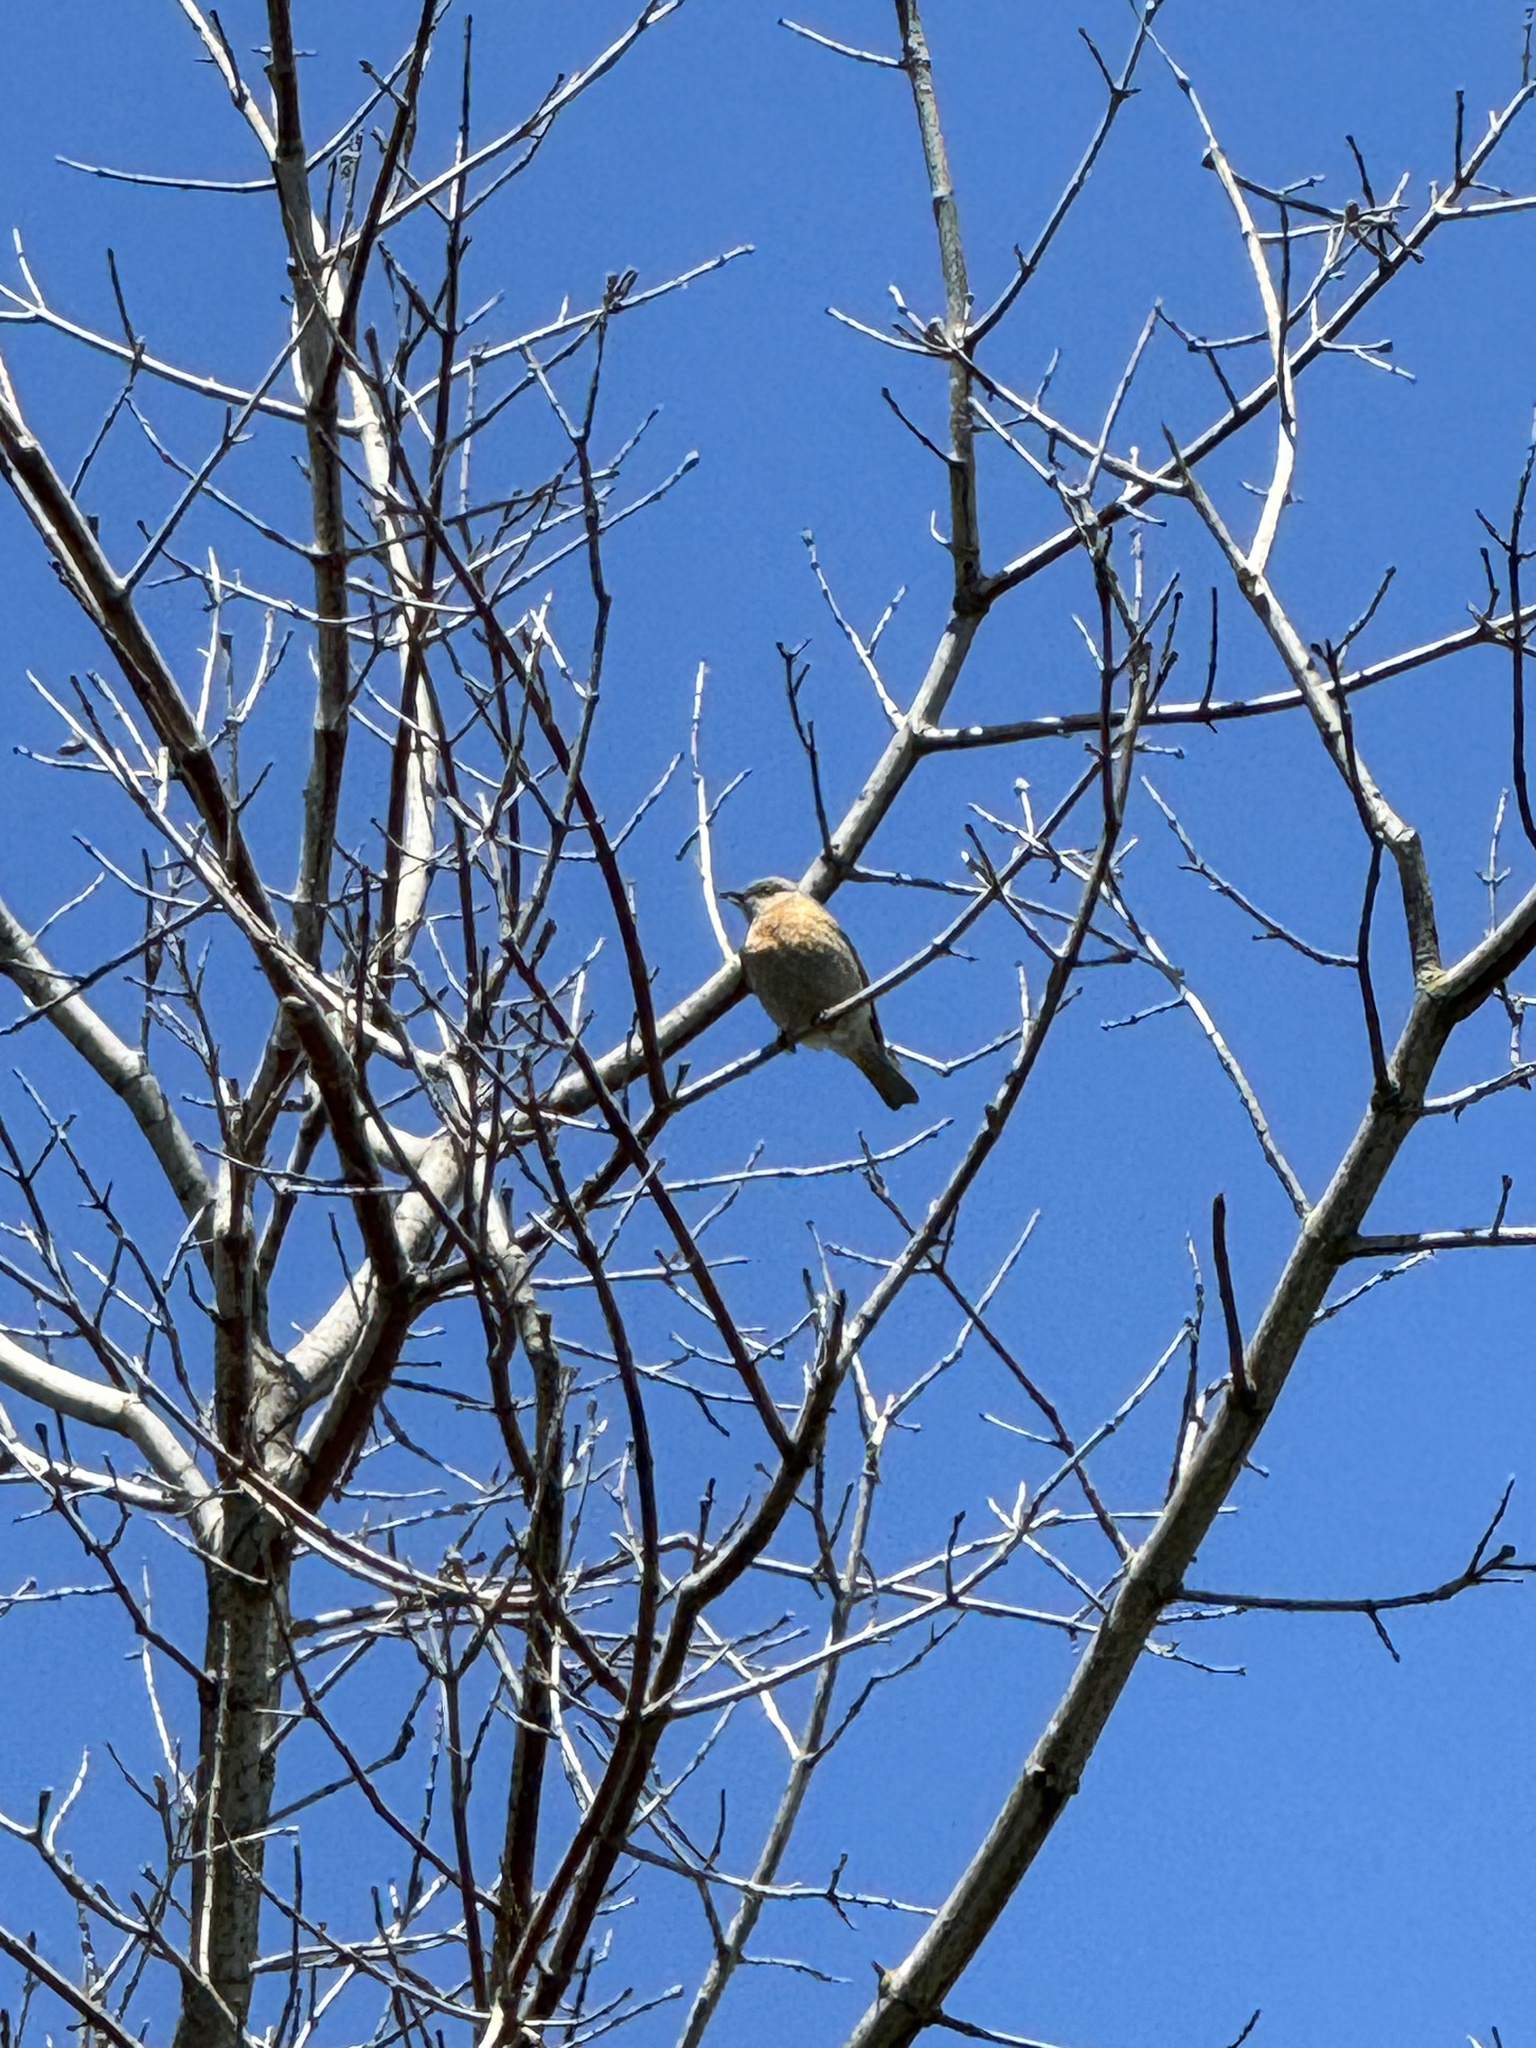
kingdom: Animalia
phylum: Chordata
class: Aves
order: Passeriformes
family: Turdidae
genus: Sialia
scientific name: Sialia mexicana
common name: Western bluebird
